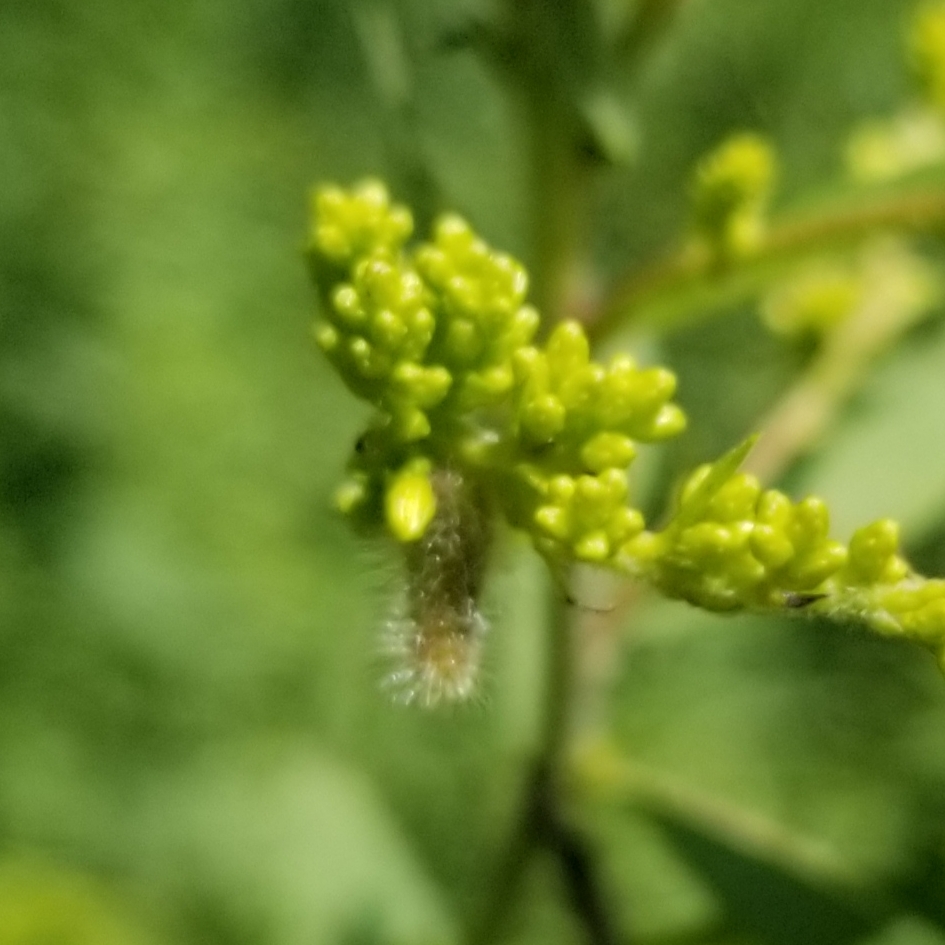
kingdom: Animalia
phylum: Arthropoda
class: Insecta
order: Diptera
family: Cecidomyiidae
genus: Rhopalomyia
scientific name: Rhopalomyia anthophila
